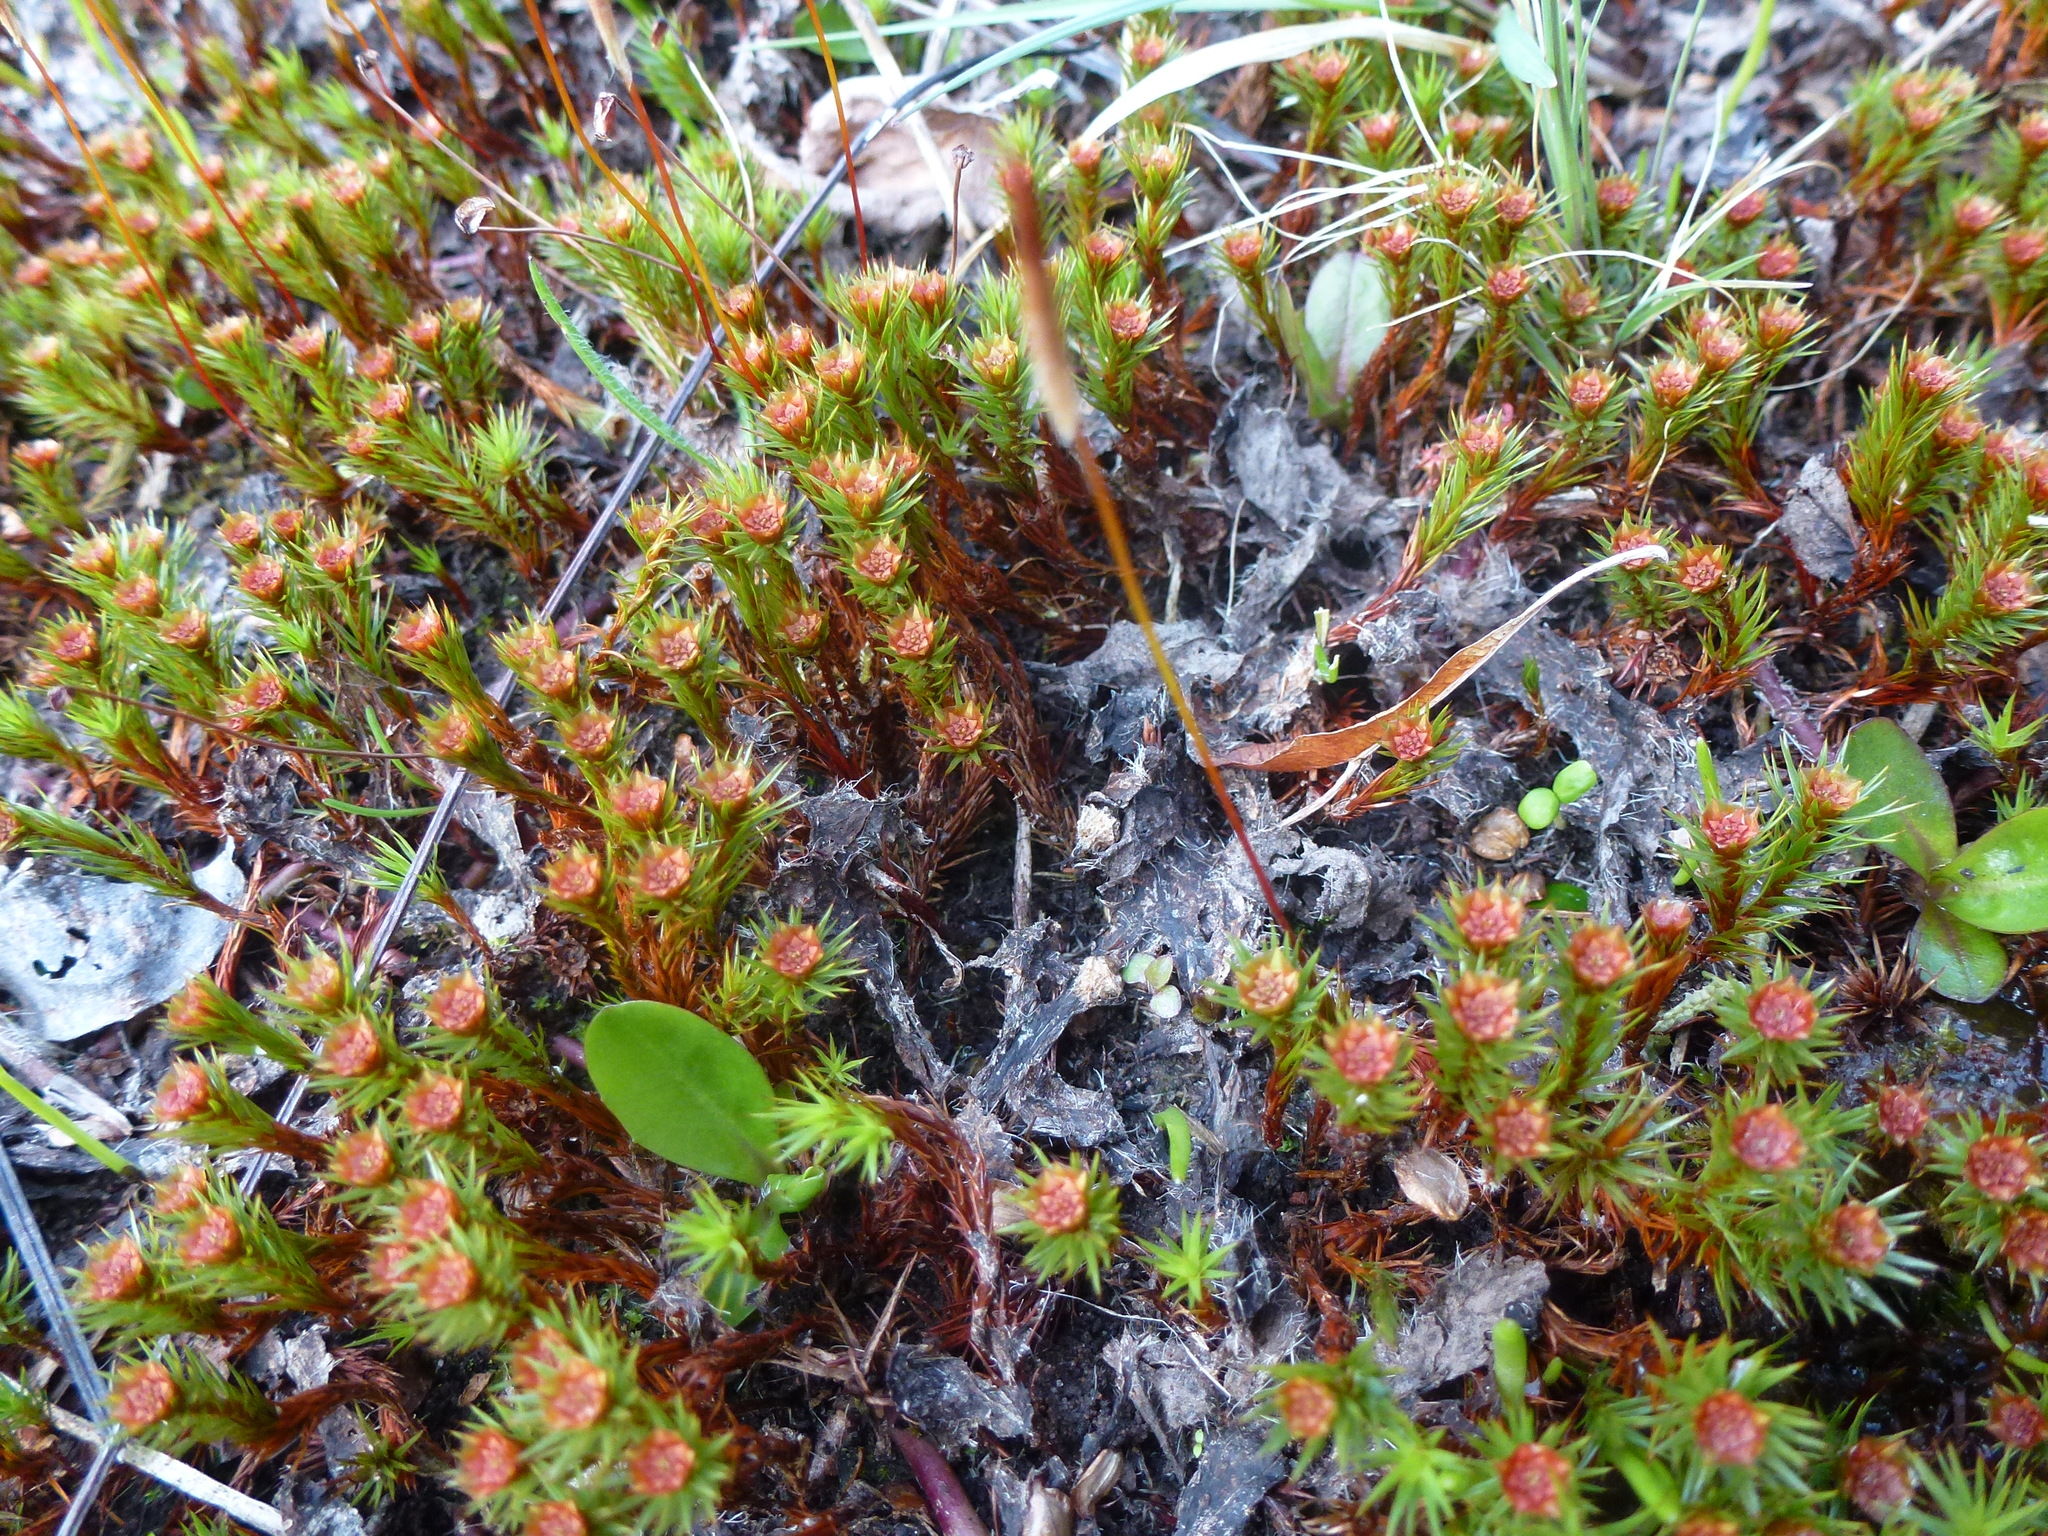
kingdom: Plantae
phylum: Bryophyta
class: Polytrichopsida
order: Polytrichales
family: Polytrichaceae
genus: Polytrichum
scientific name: Polytrichum juniperinum
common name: Juniper haircap moss
